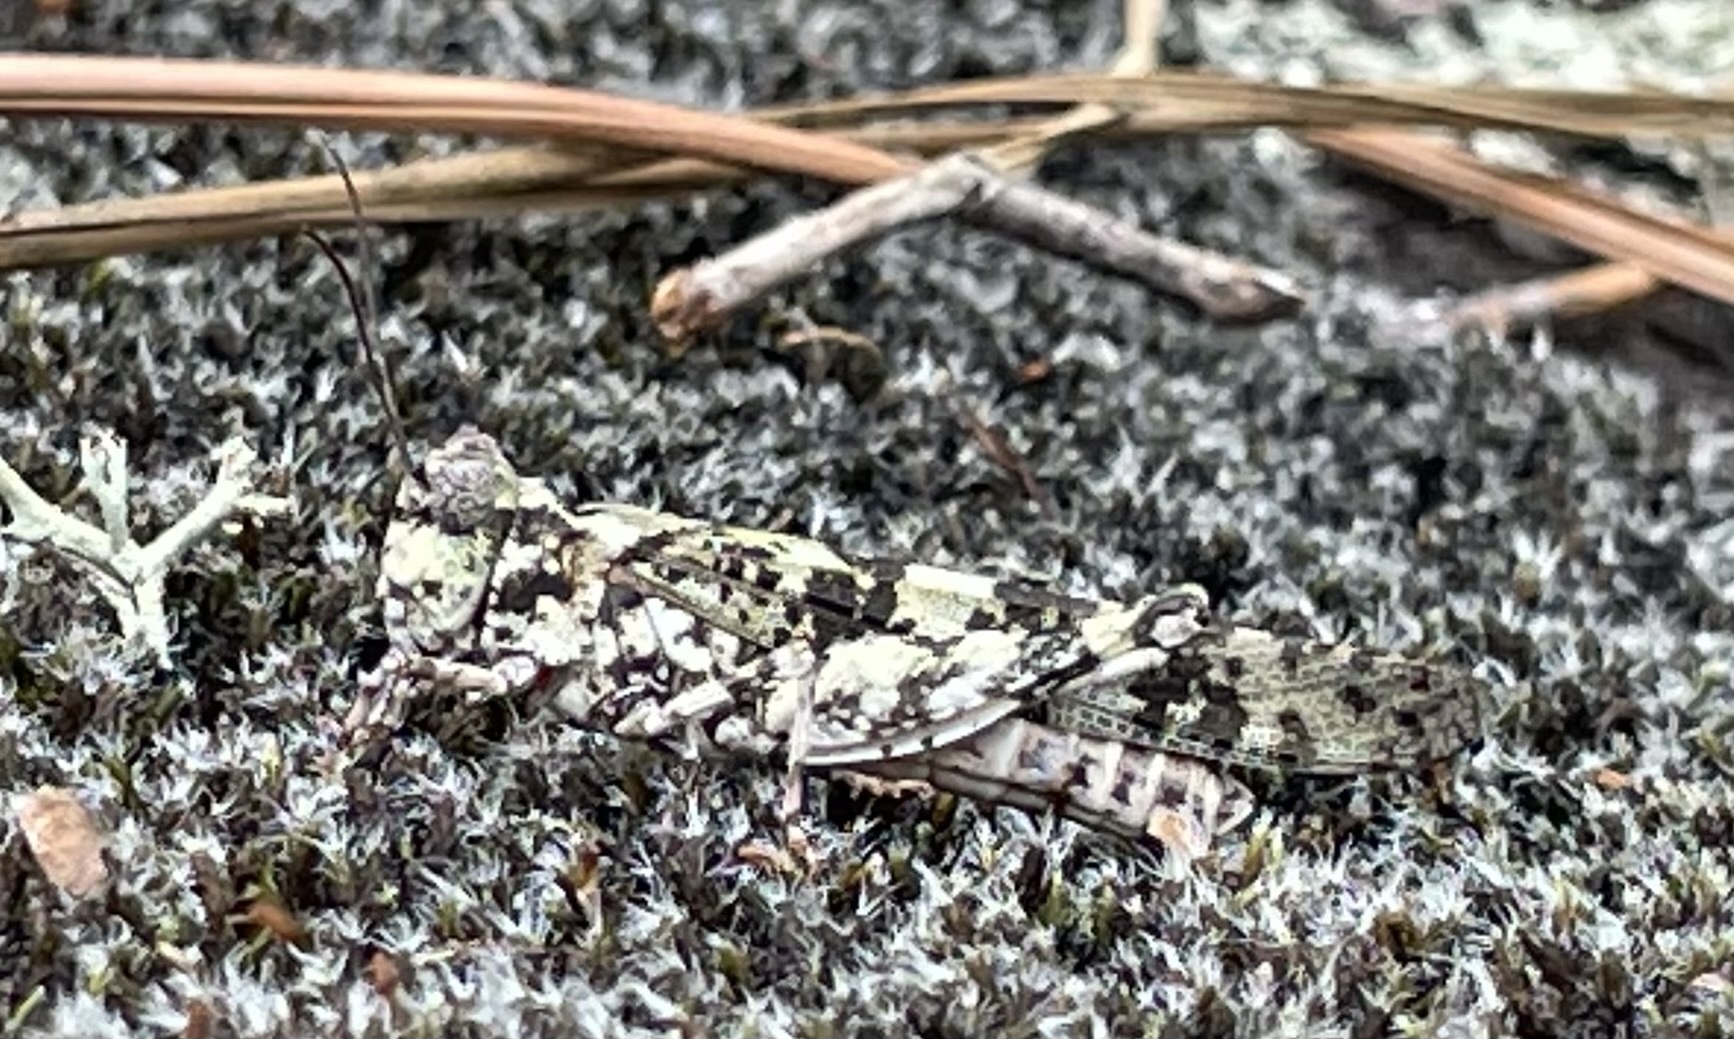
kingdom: Animalia
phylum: Arthropoda
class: Insecta
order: Orthoptera
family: Acrididae
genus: Trimerotropis
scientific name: Trimerotropis saxatilis
